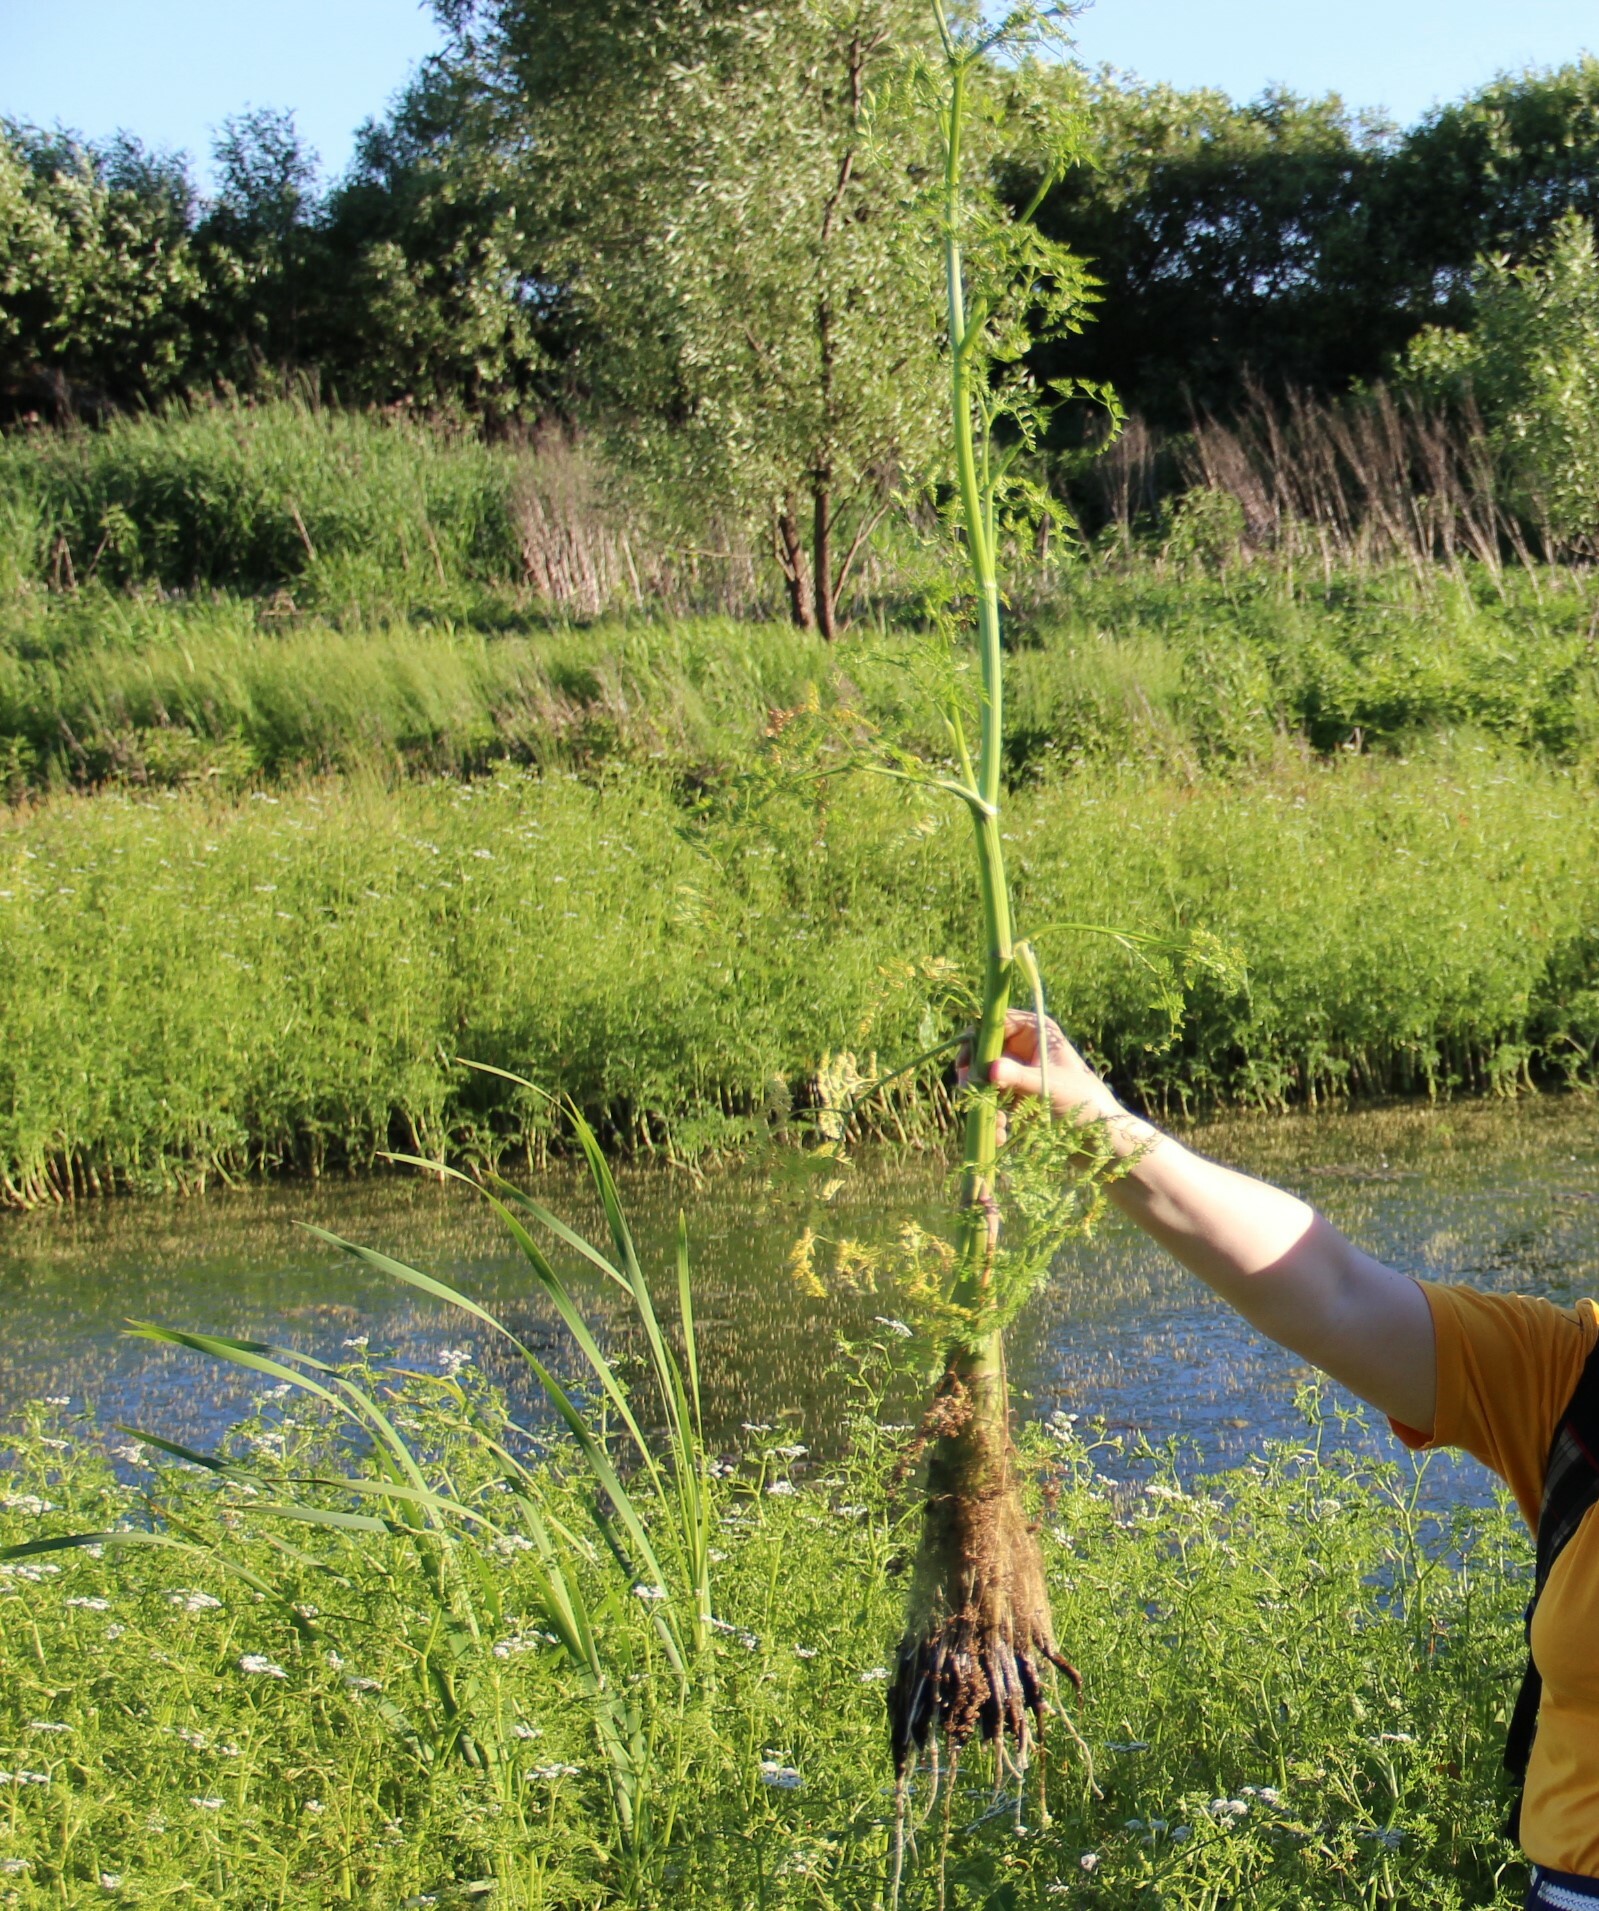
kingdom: Plantae
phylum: Tracheophyta
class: Magnoliopsida
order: Apiales
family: Apiaceae
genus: Oenanthe
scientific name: Oenanthe aquatica
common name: Fine-leaved water-dropwort
